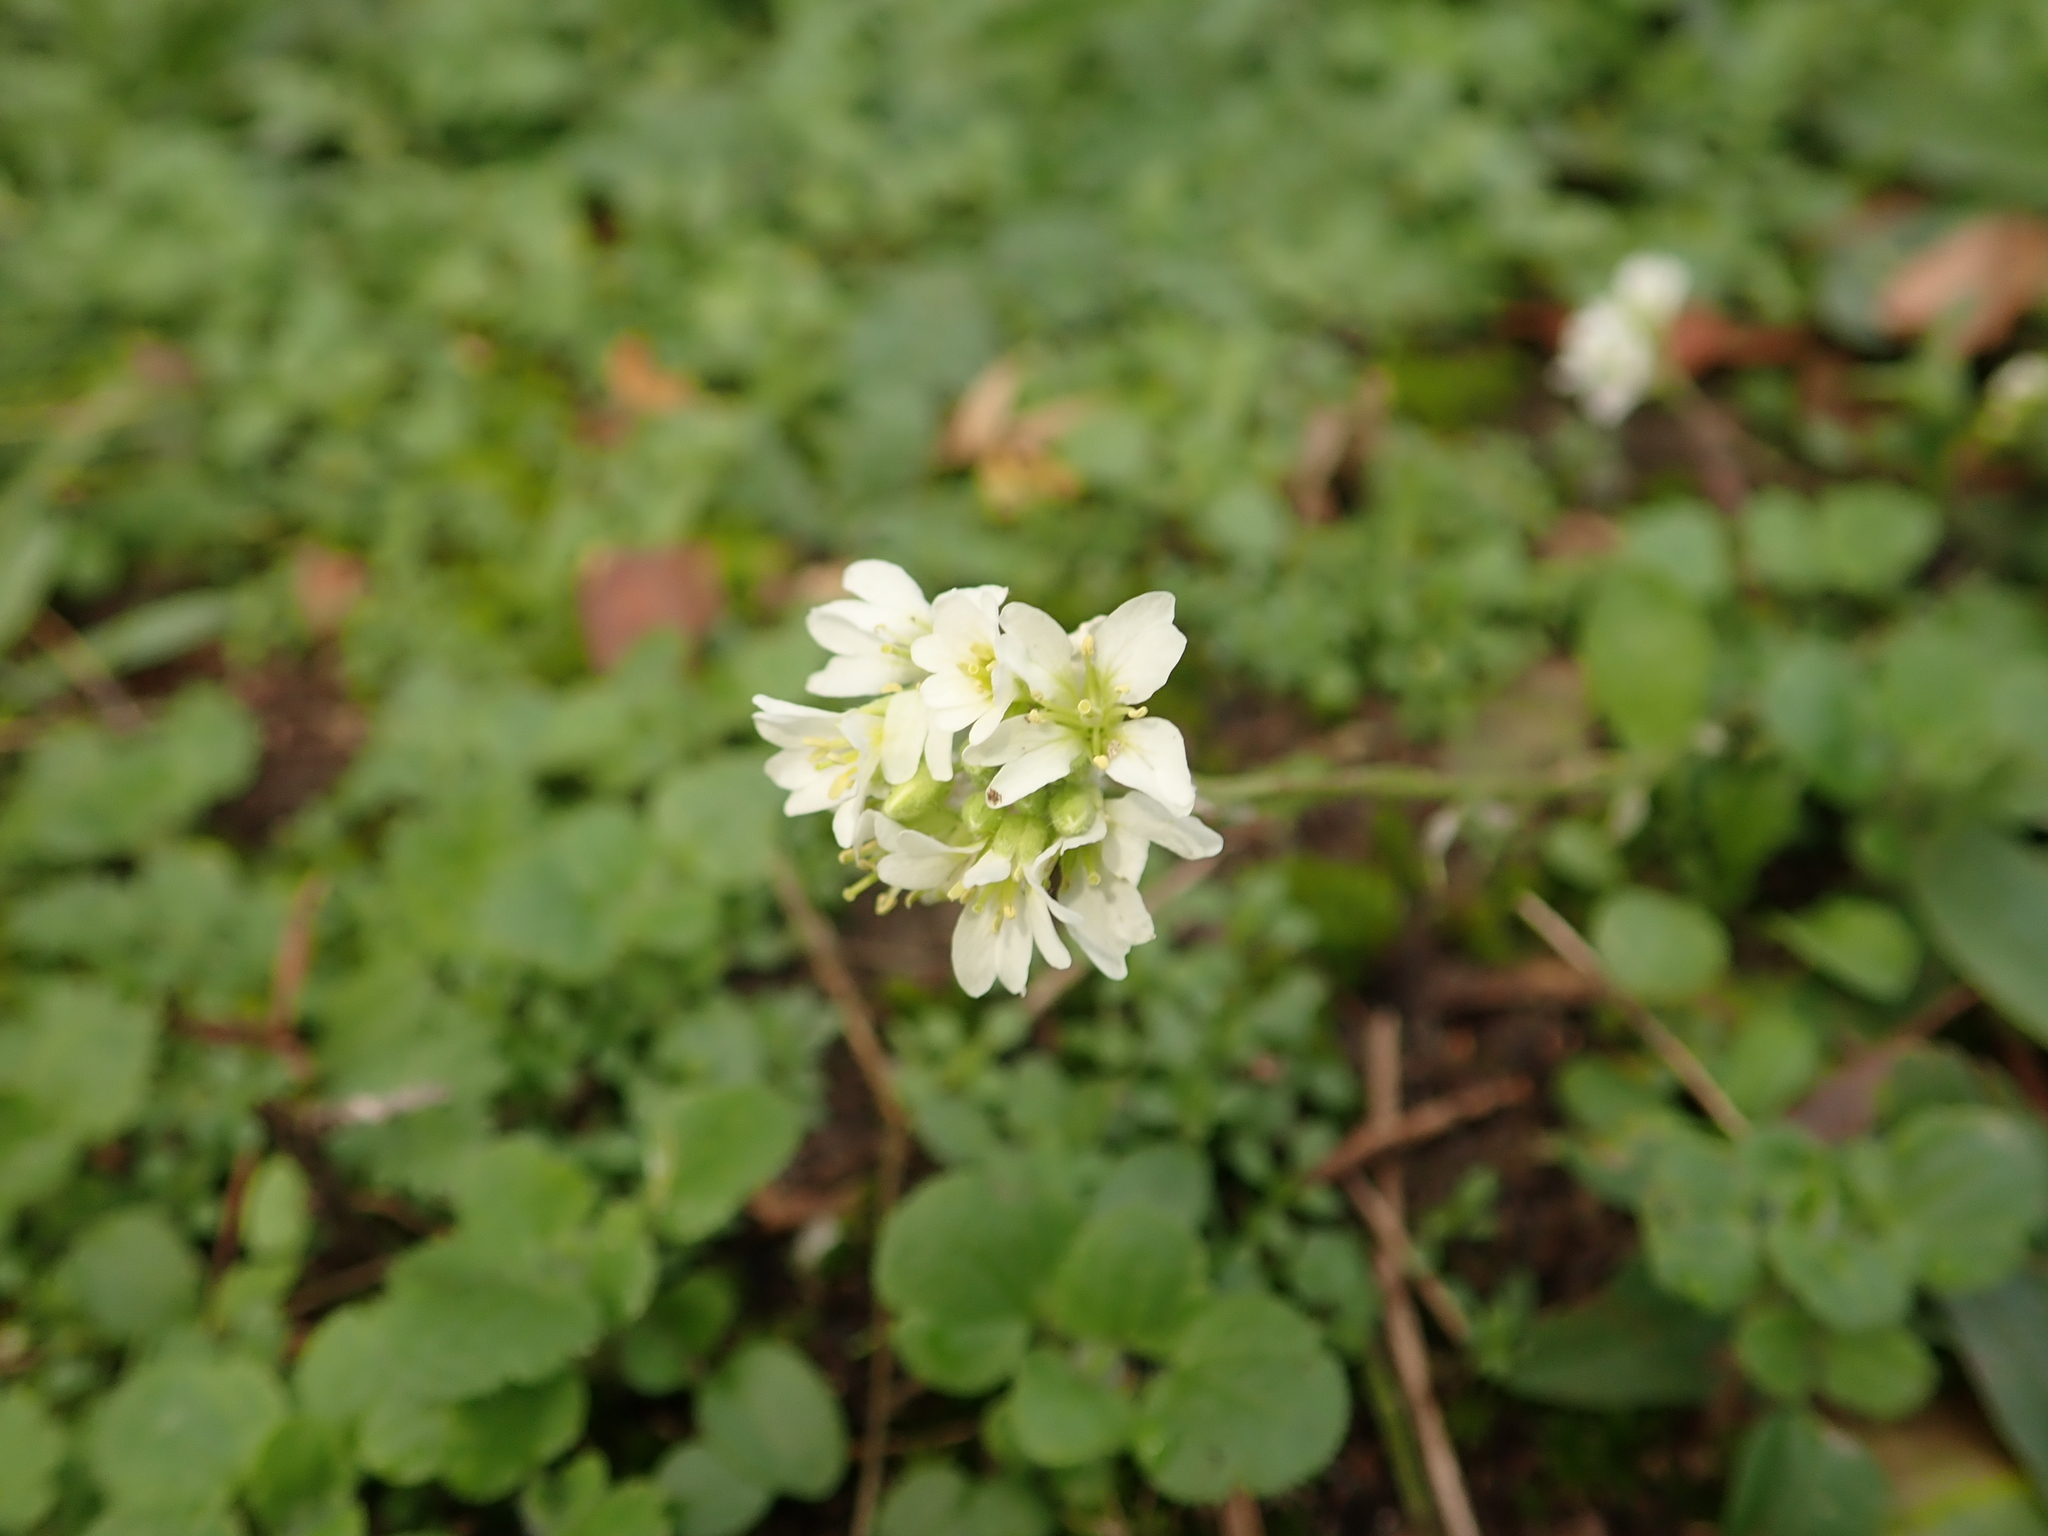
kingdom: Plantae
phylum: Tracheophyta
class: Magnoliopsida
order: Brassicales
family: Brassicaceae
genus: Berteroa
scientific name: Berteroa incana
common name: Hoary alison
